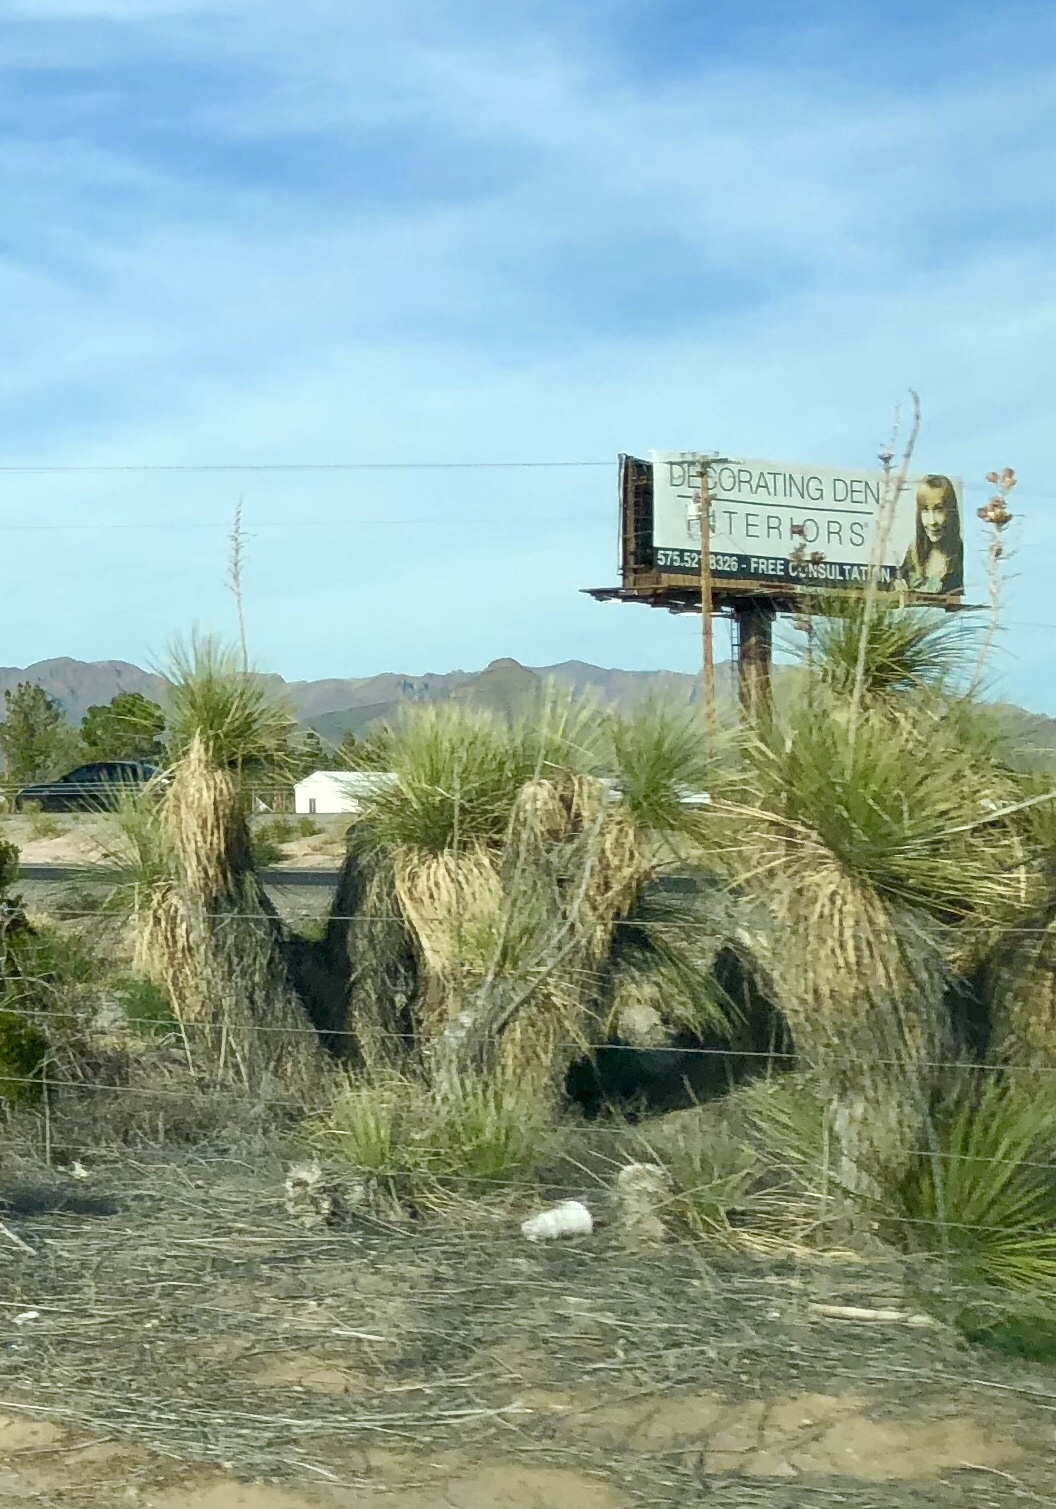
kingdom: Plantae
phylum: Tracheophyta
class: Liliopsida
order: Asparagales
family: Asparagaceae
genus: Yucca
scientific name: Yucca elata
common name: Palmella
